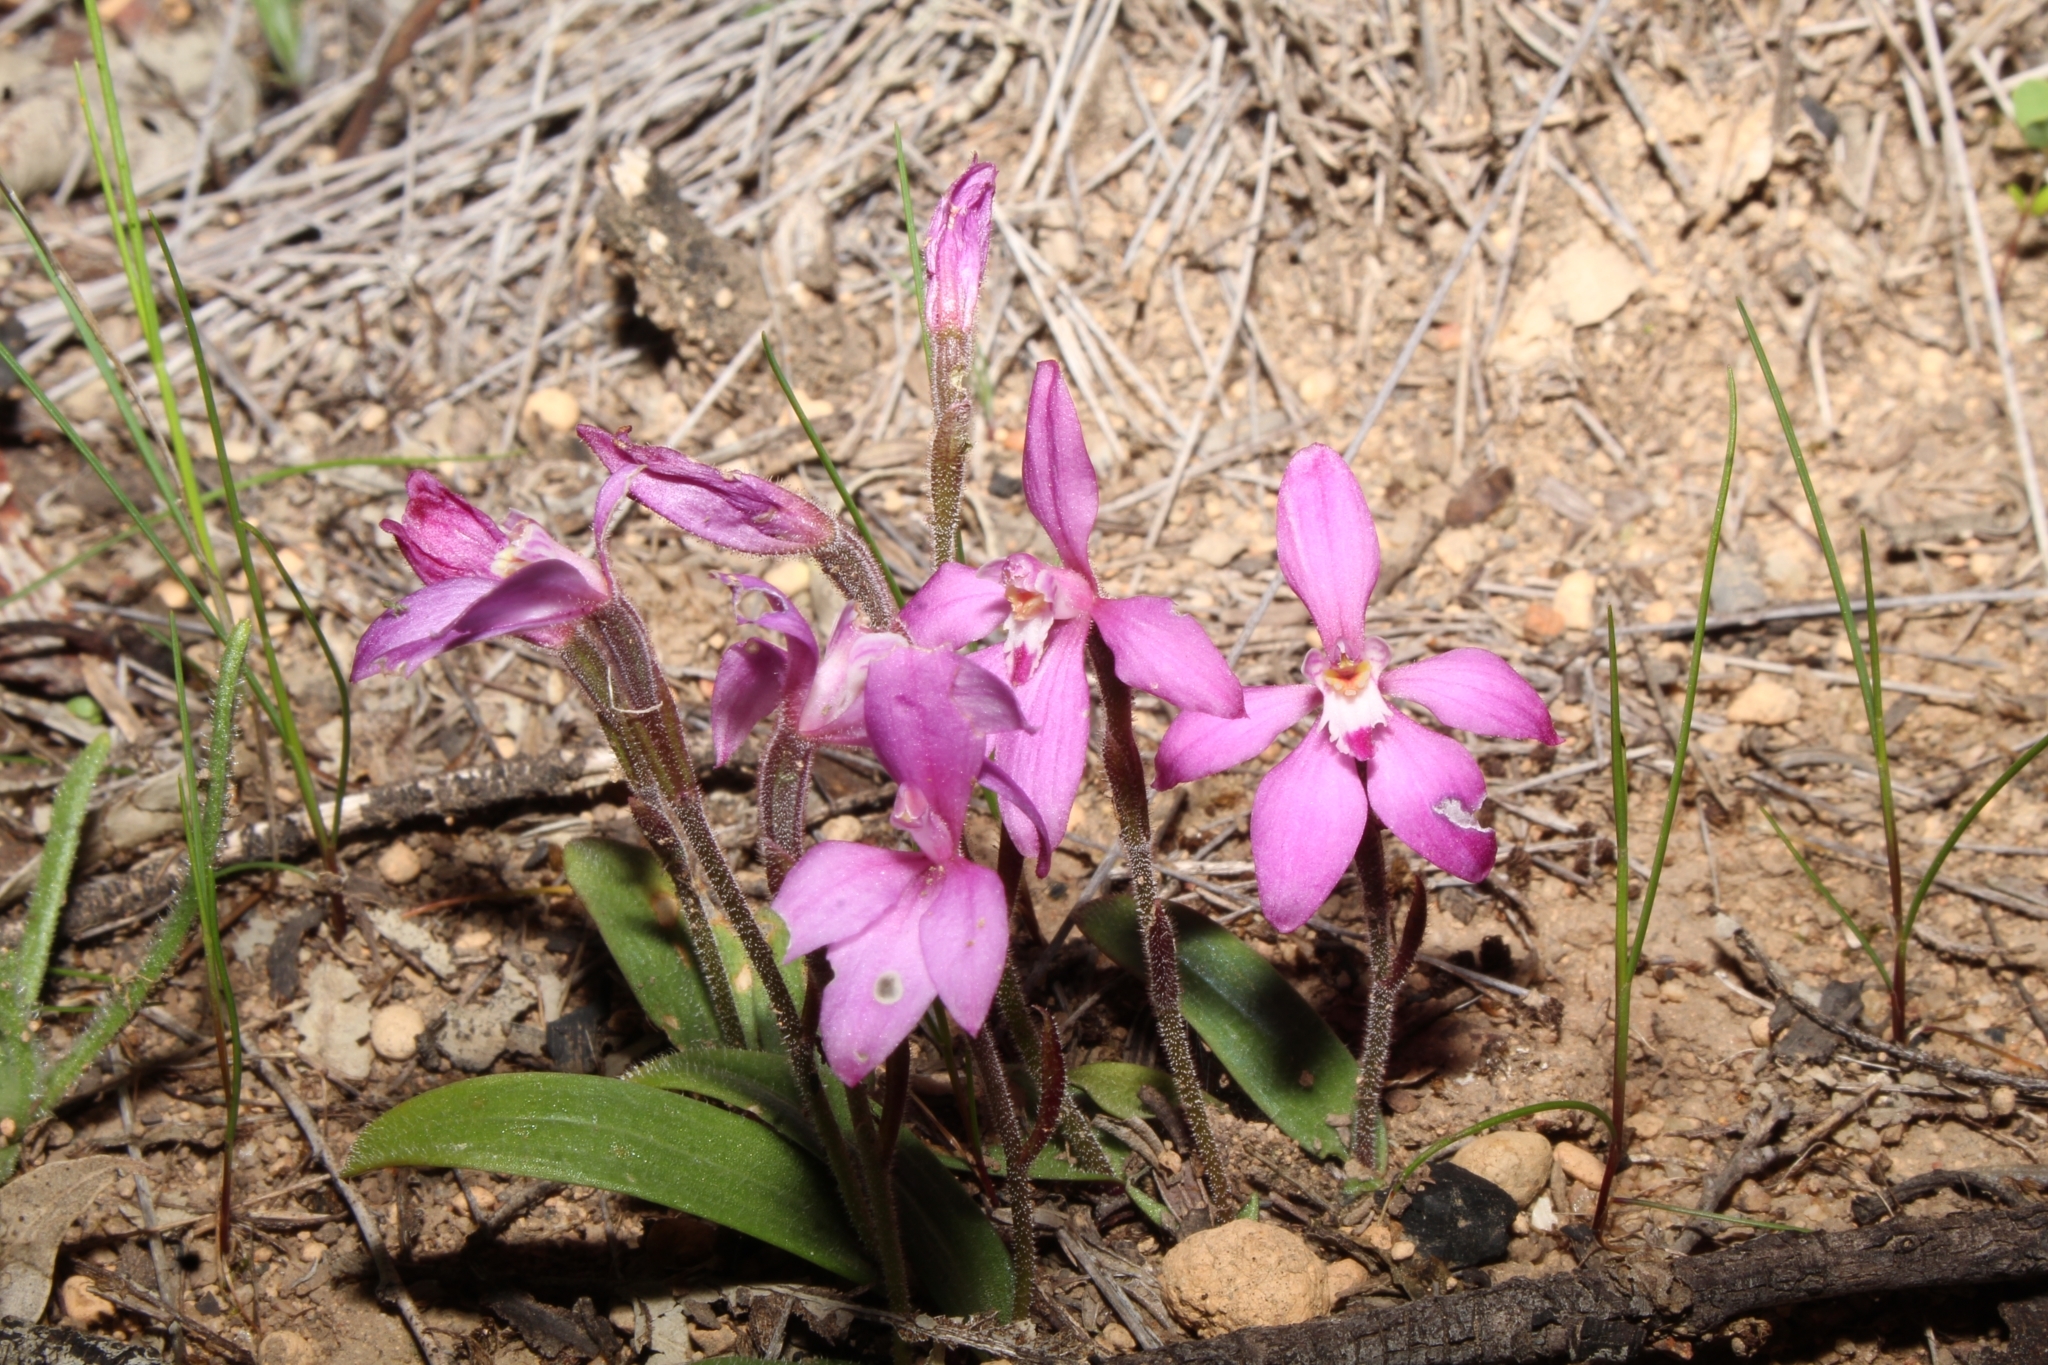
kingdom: Plantae
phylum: Tracheophyta
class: Liliopsida
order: Asparagales
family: Orchidaceae
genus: Caladenia
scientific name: Caladenia reptans
